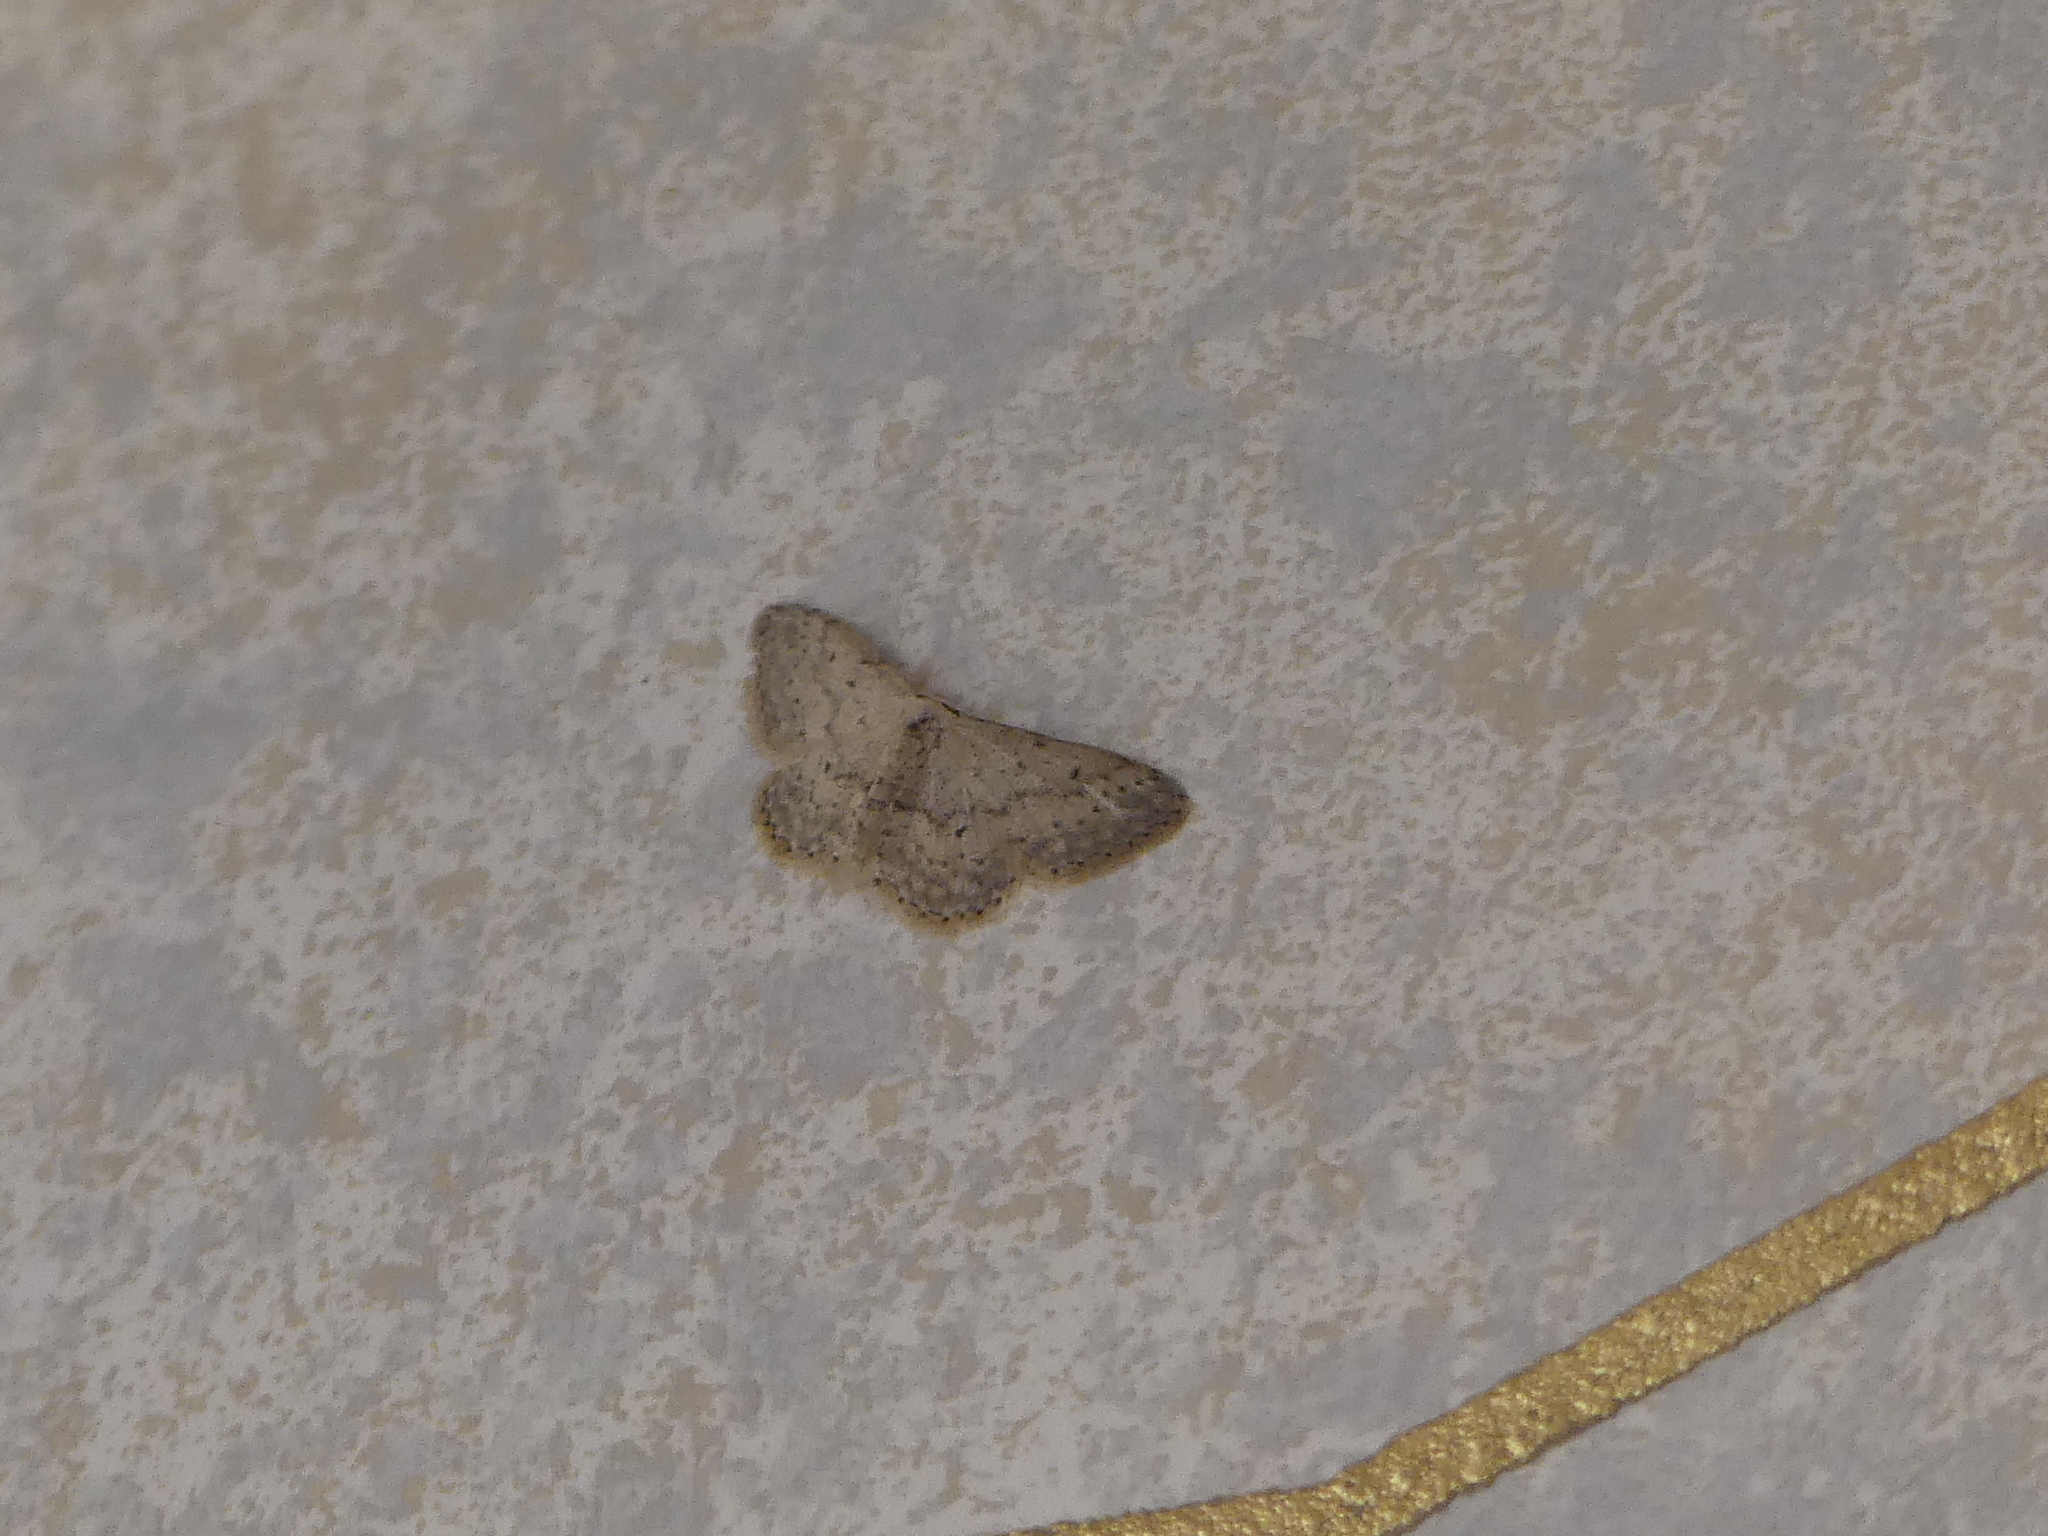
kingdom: Animalia
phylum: Arthropoda
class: Insecta
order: Lepidoptera
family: Geometridae
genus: Idaea
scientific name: Idaea seriata
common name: Small dusty wave
